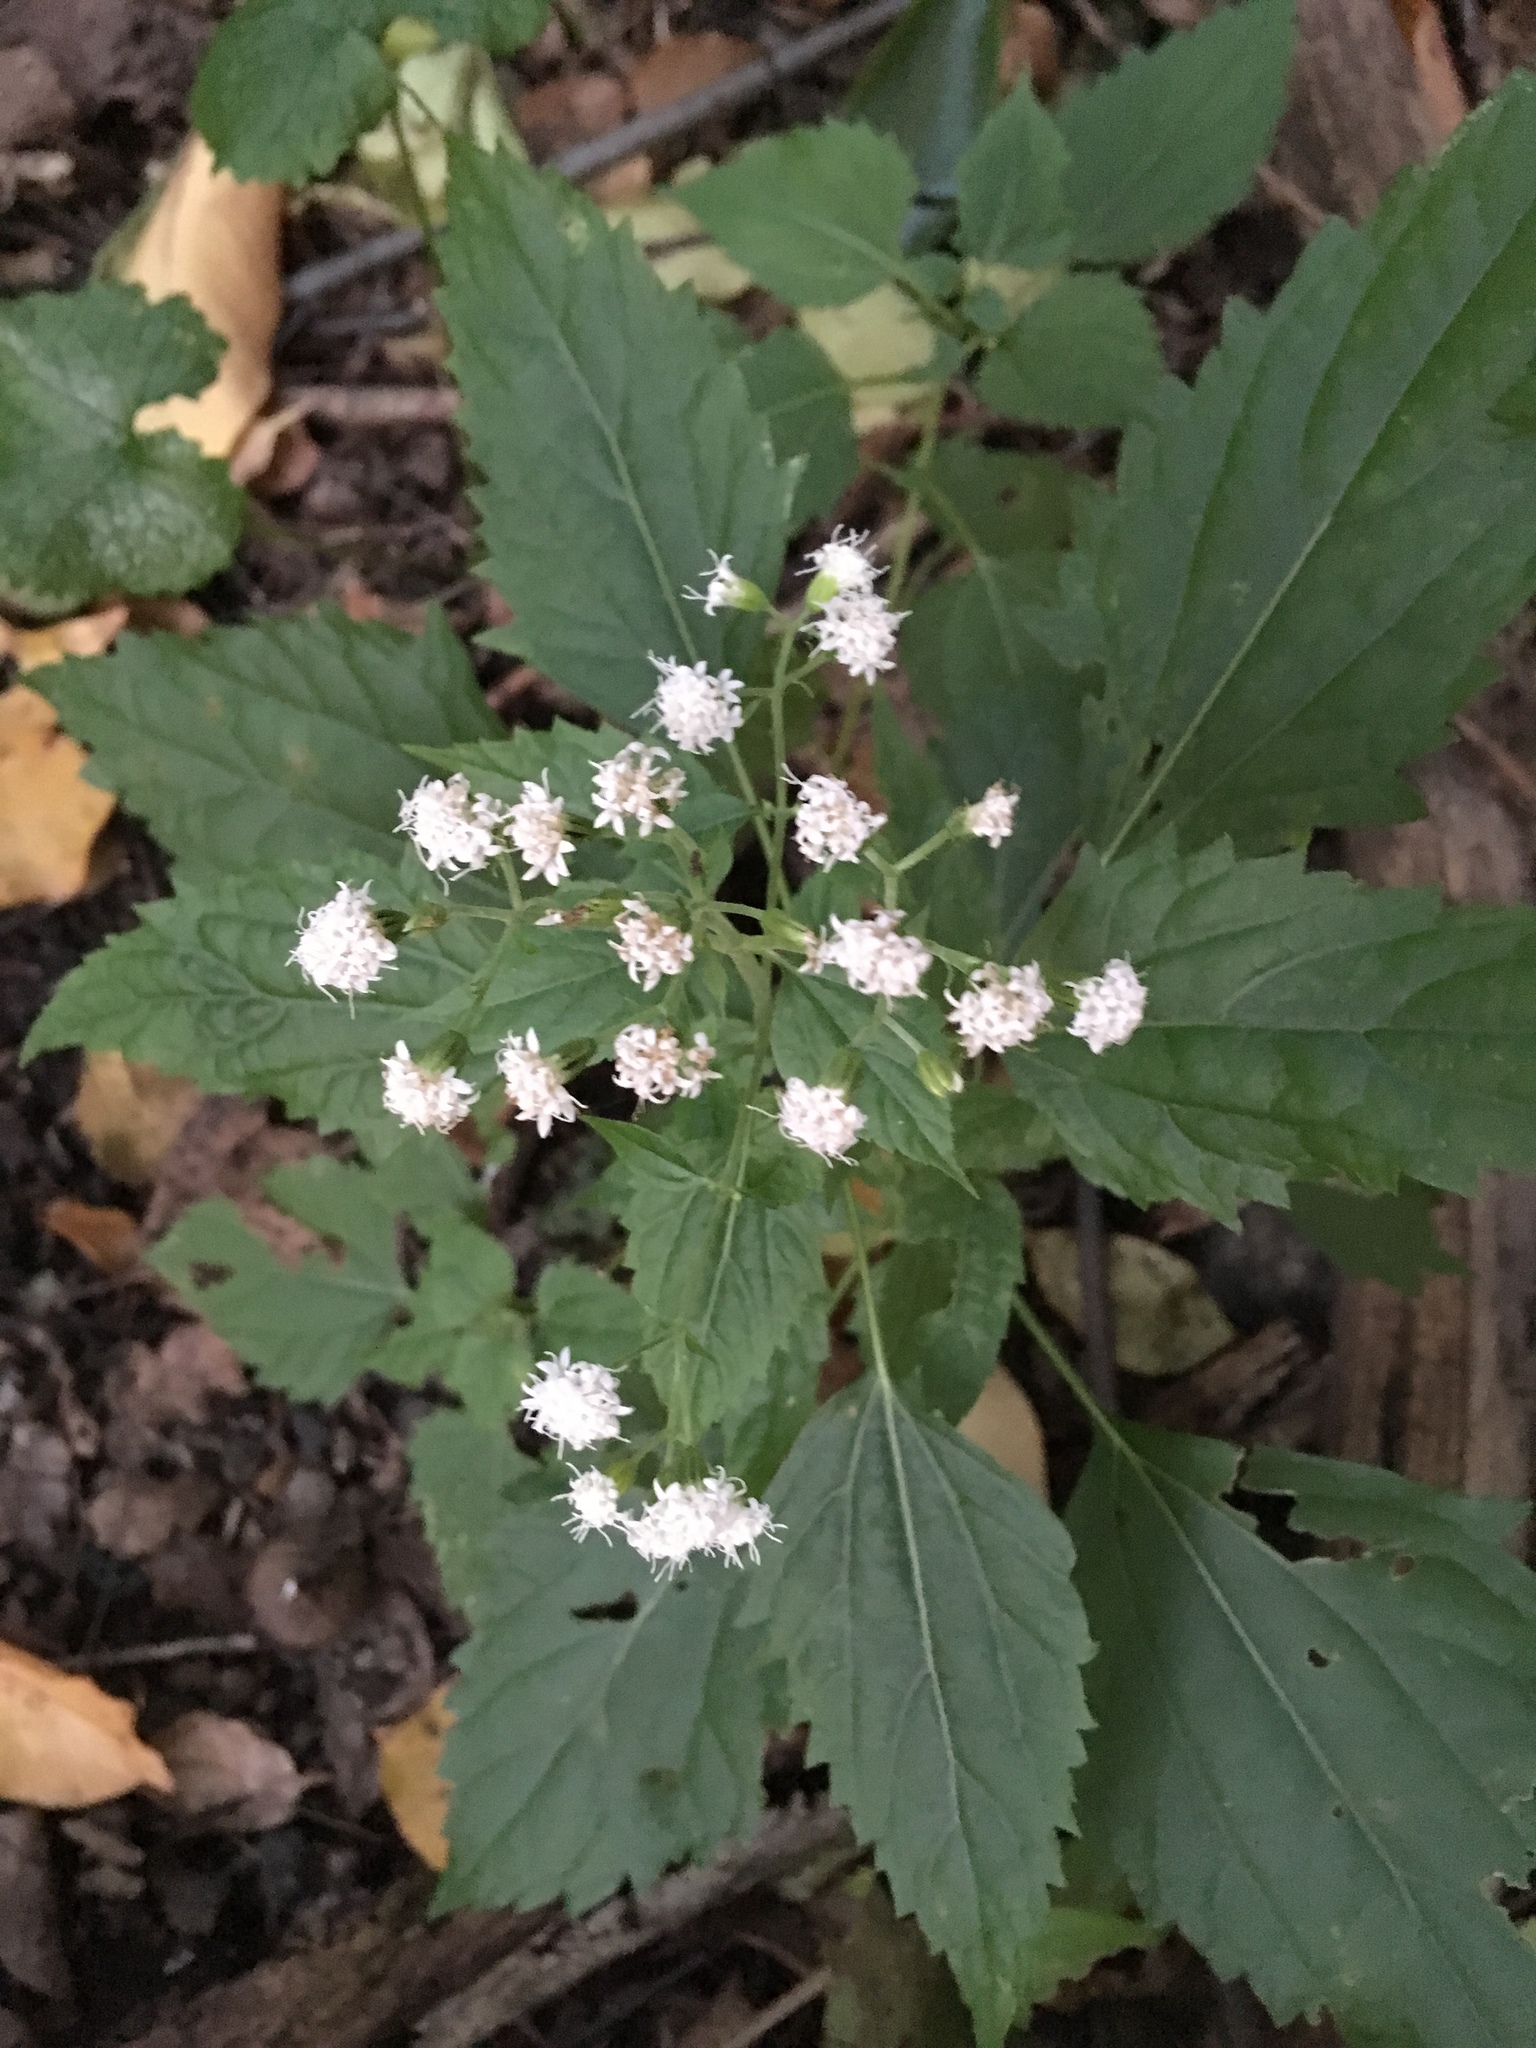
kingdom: Plantae
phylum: Tracheophyta
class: Magnoliopsida
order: Asterales
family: Asteraceae
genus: Ageratina
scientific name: Ageratina altissima
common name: White snakeroot
